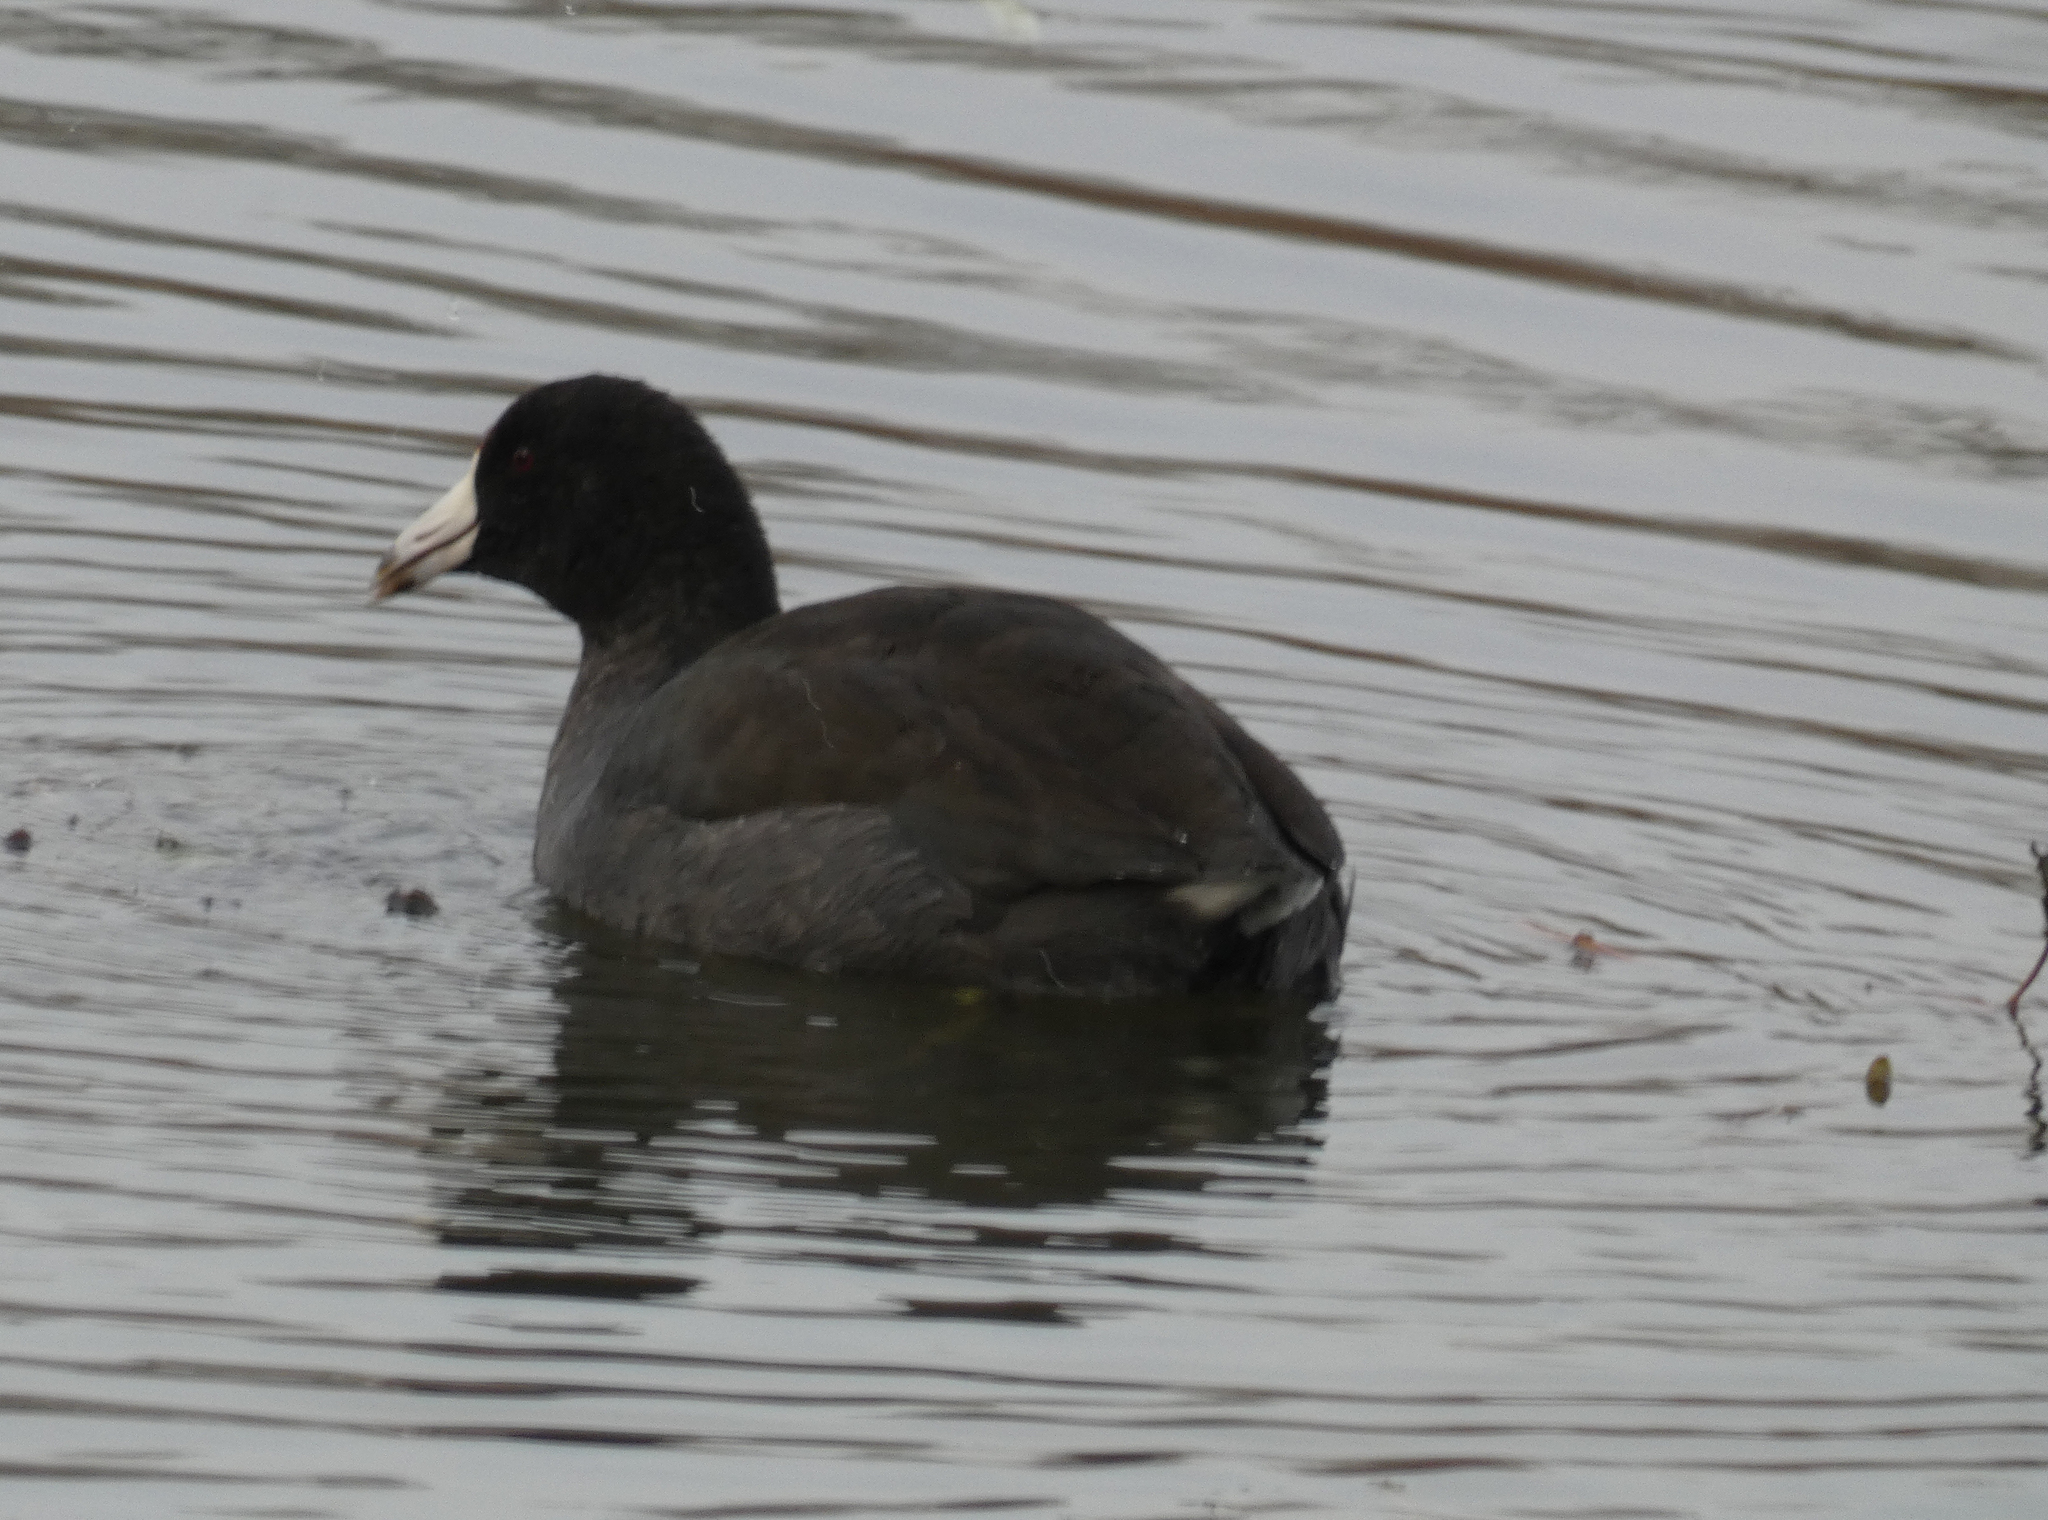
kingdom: Animalia
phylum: Chordata
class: Aves
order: Gruiformes
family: Rallidae
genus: Fulica
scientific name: Fulica americana
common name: American coot
